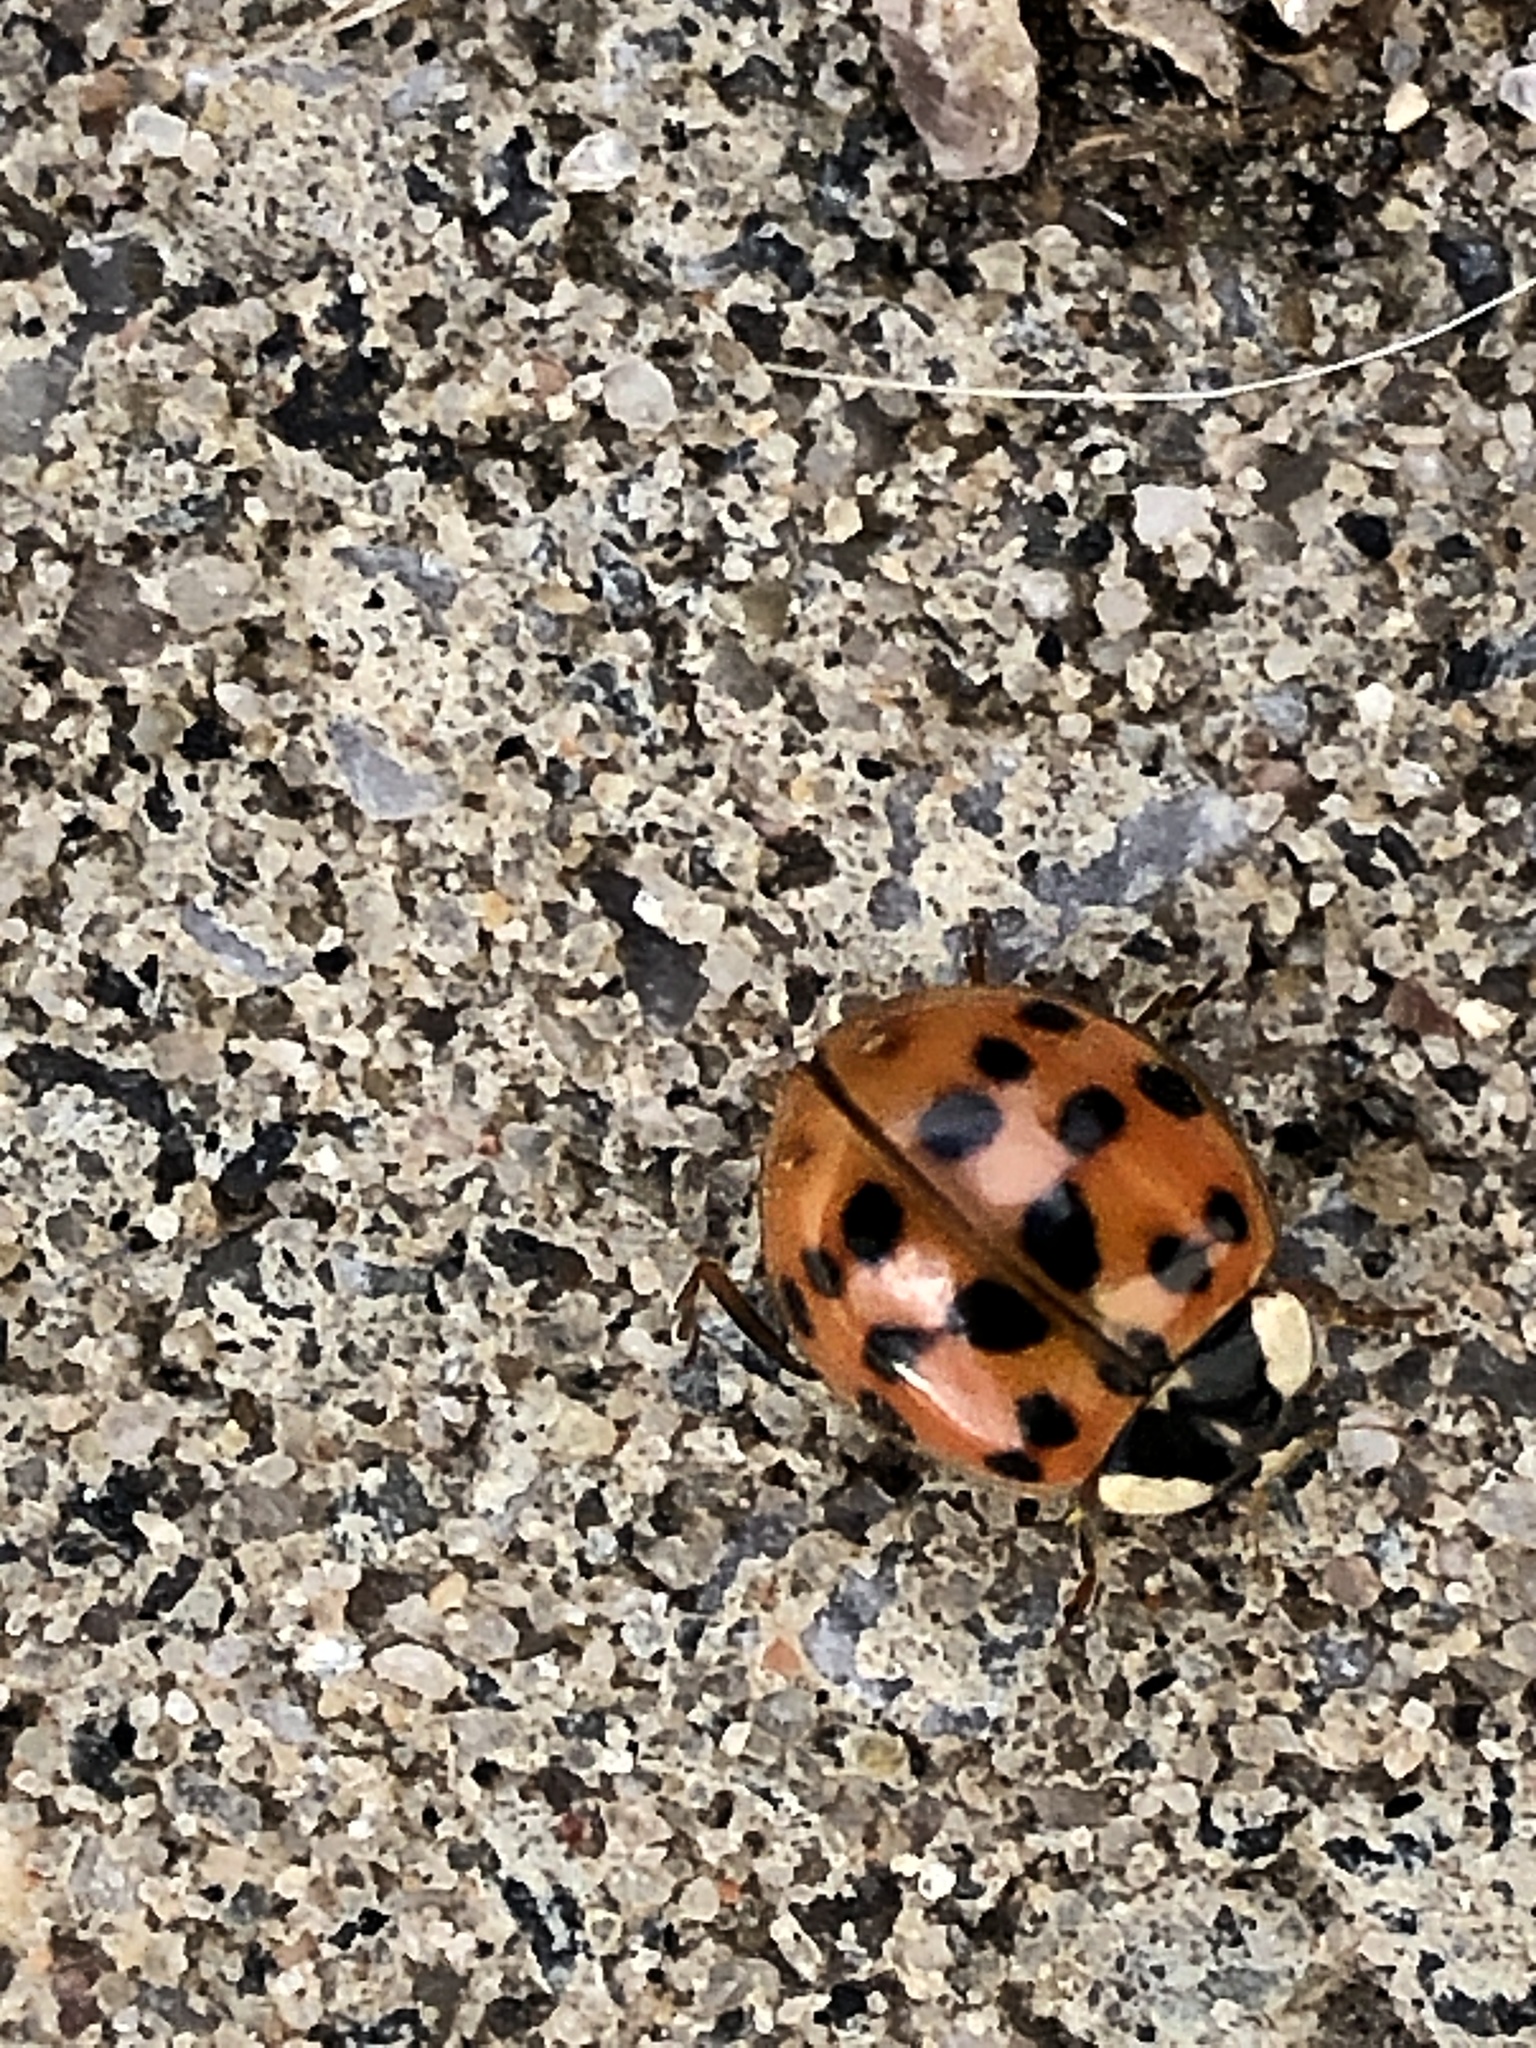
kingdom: Animalia
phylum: Arthropoda
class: Insecta
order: Coleoptera
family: Coccinellidae
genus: Harmonia
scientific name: Harmonia axyridis
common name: Harlequin ladybird
